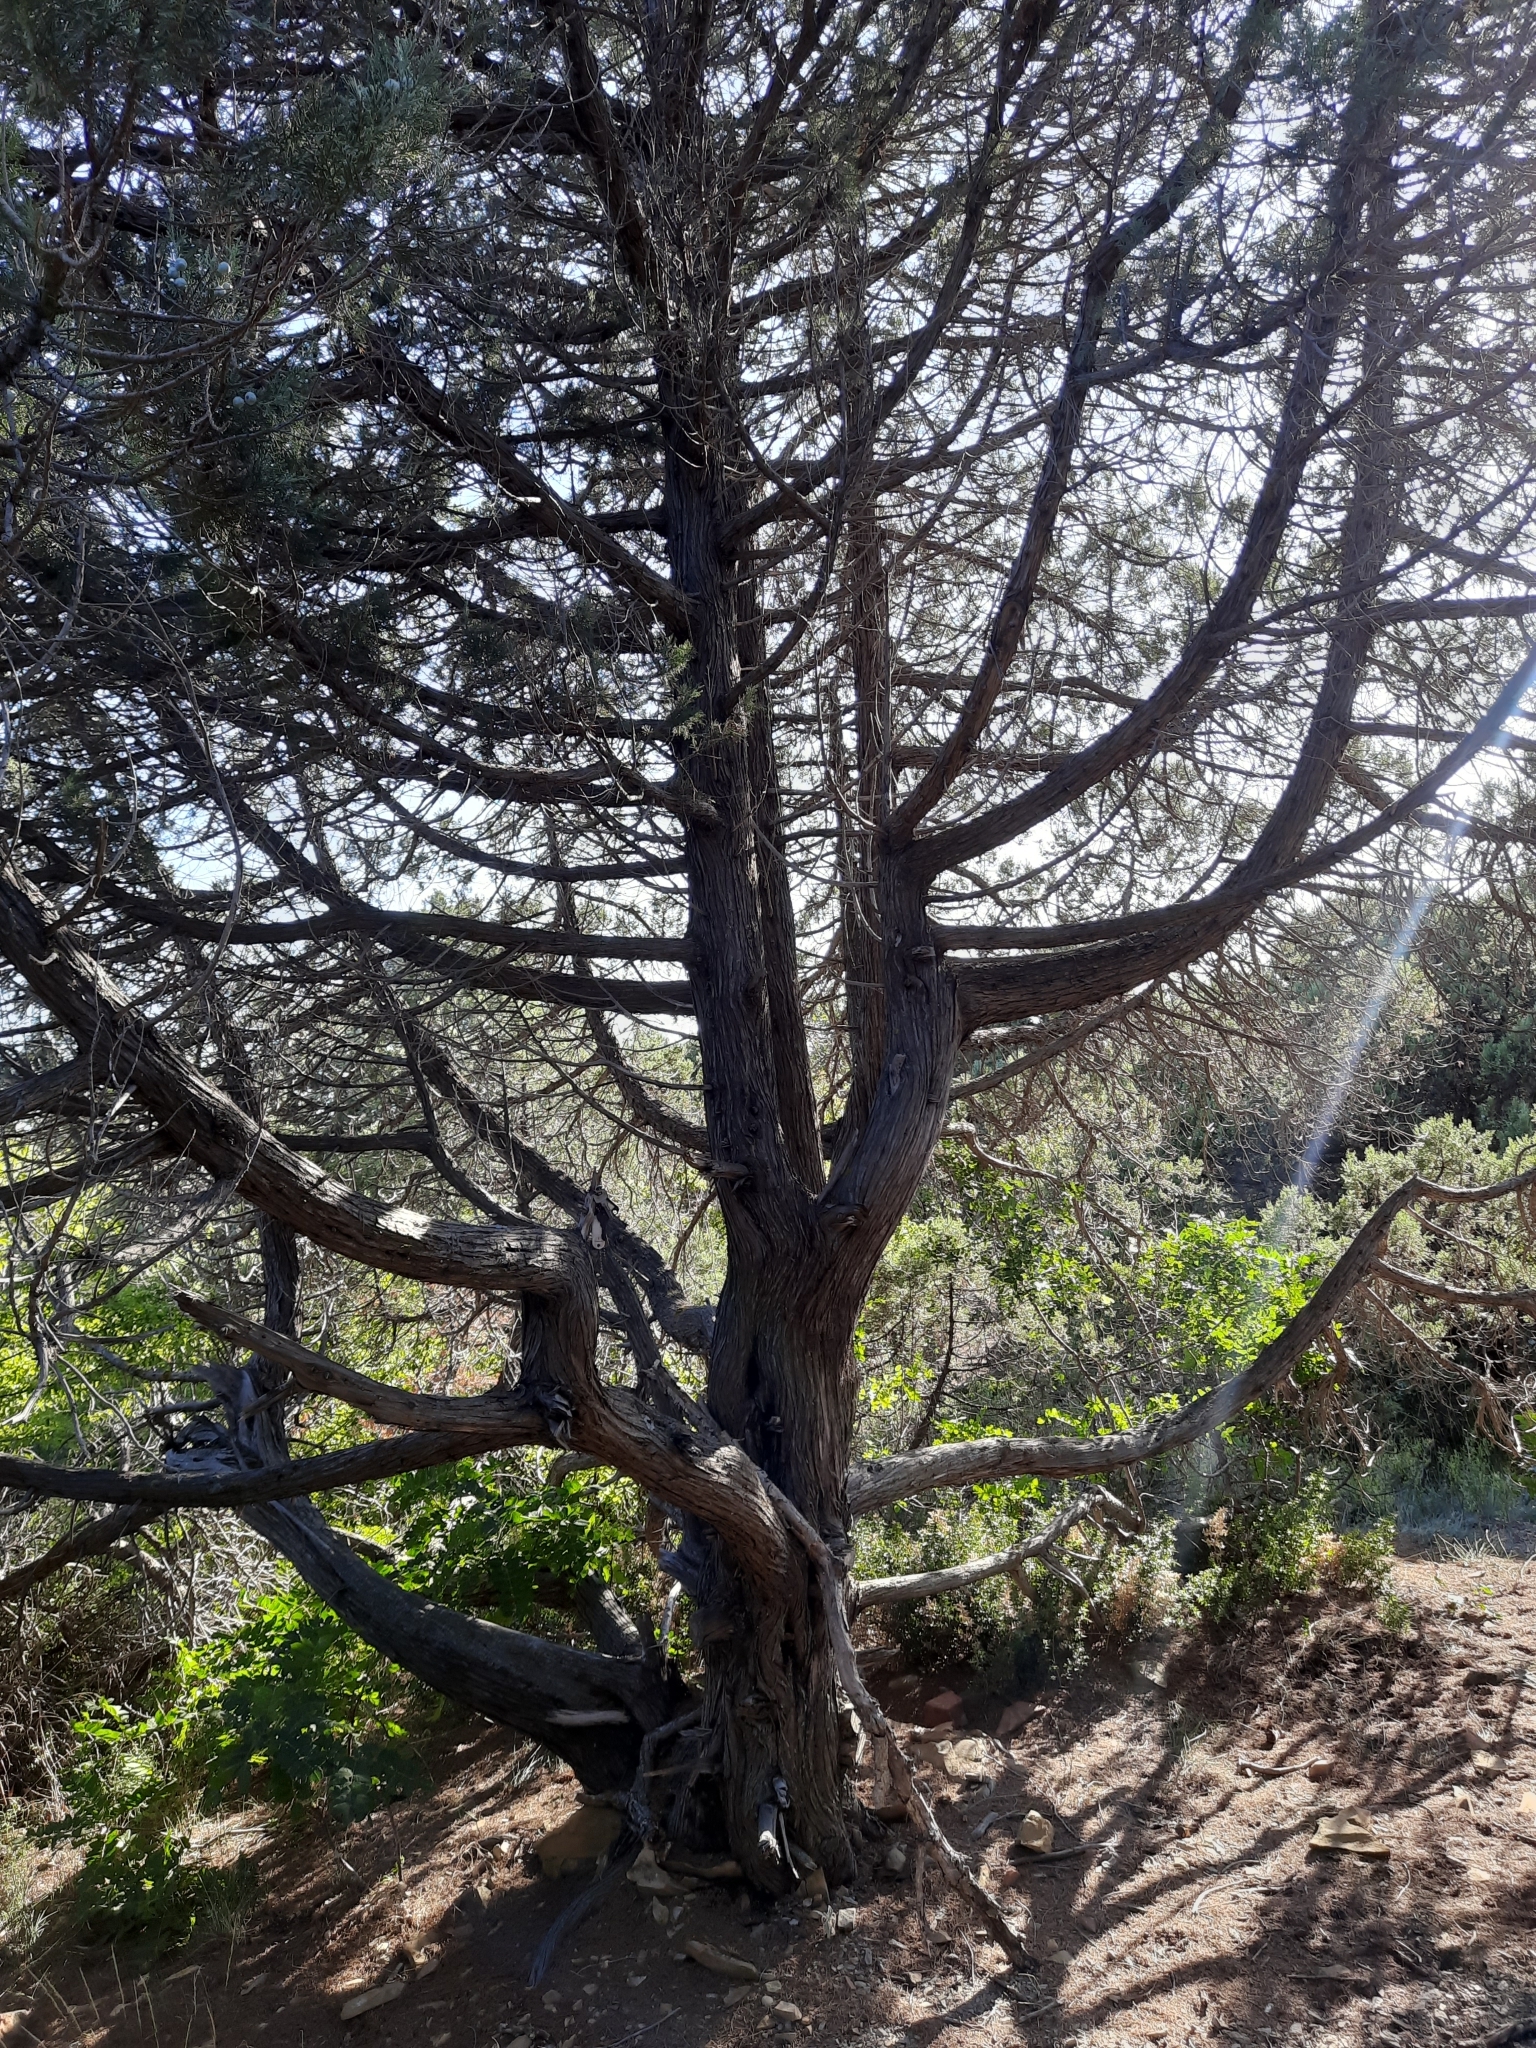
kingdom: Plantae
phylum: Tracheophyta
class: Pinopsida
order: Pinales
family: Cupressaceae
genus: Juniperus
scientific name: Juniperus excelsa
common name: Crimean juniper
